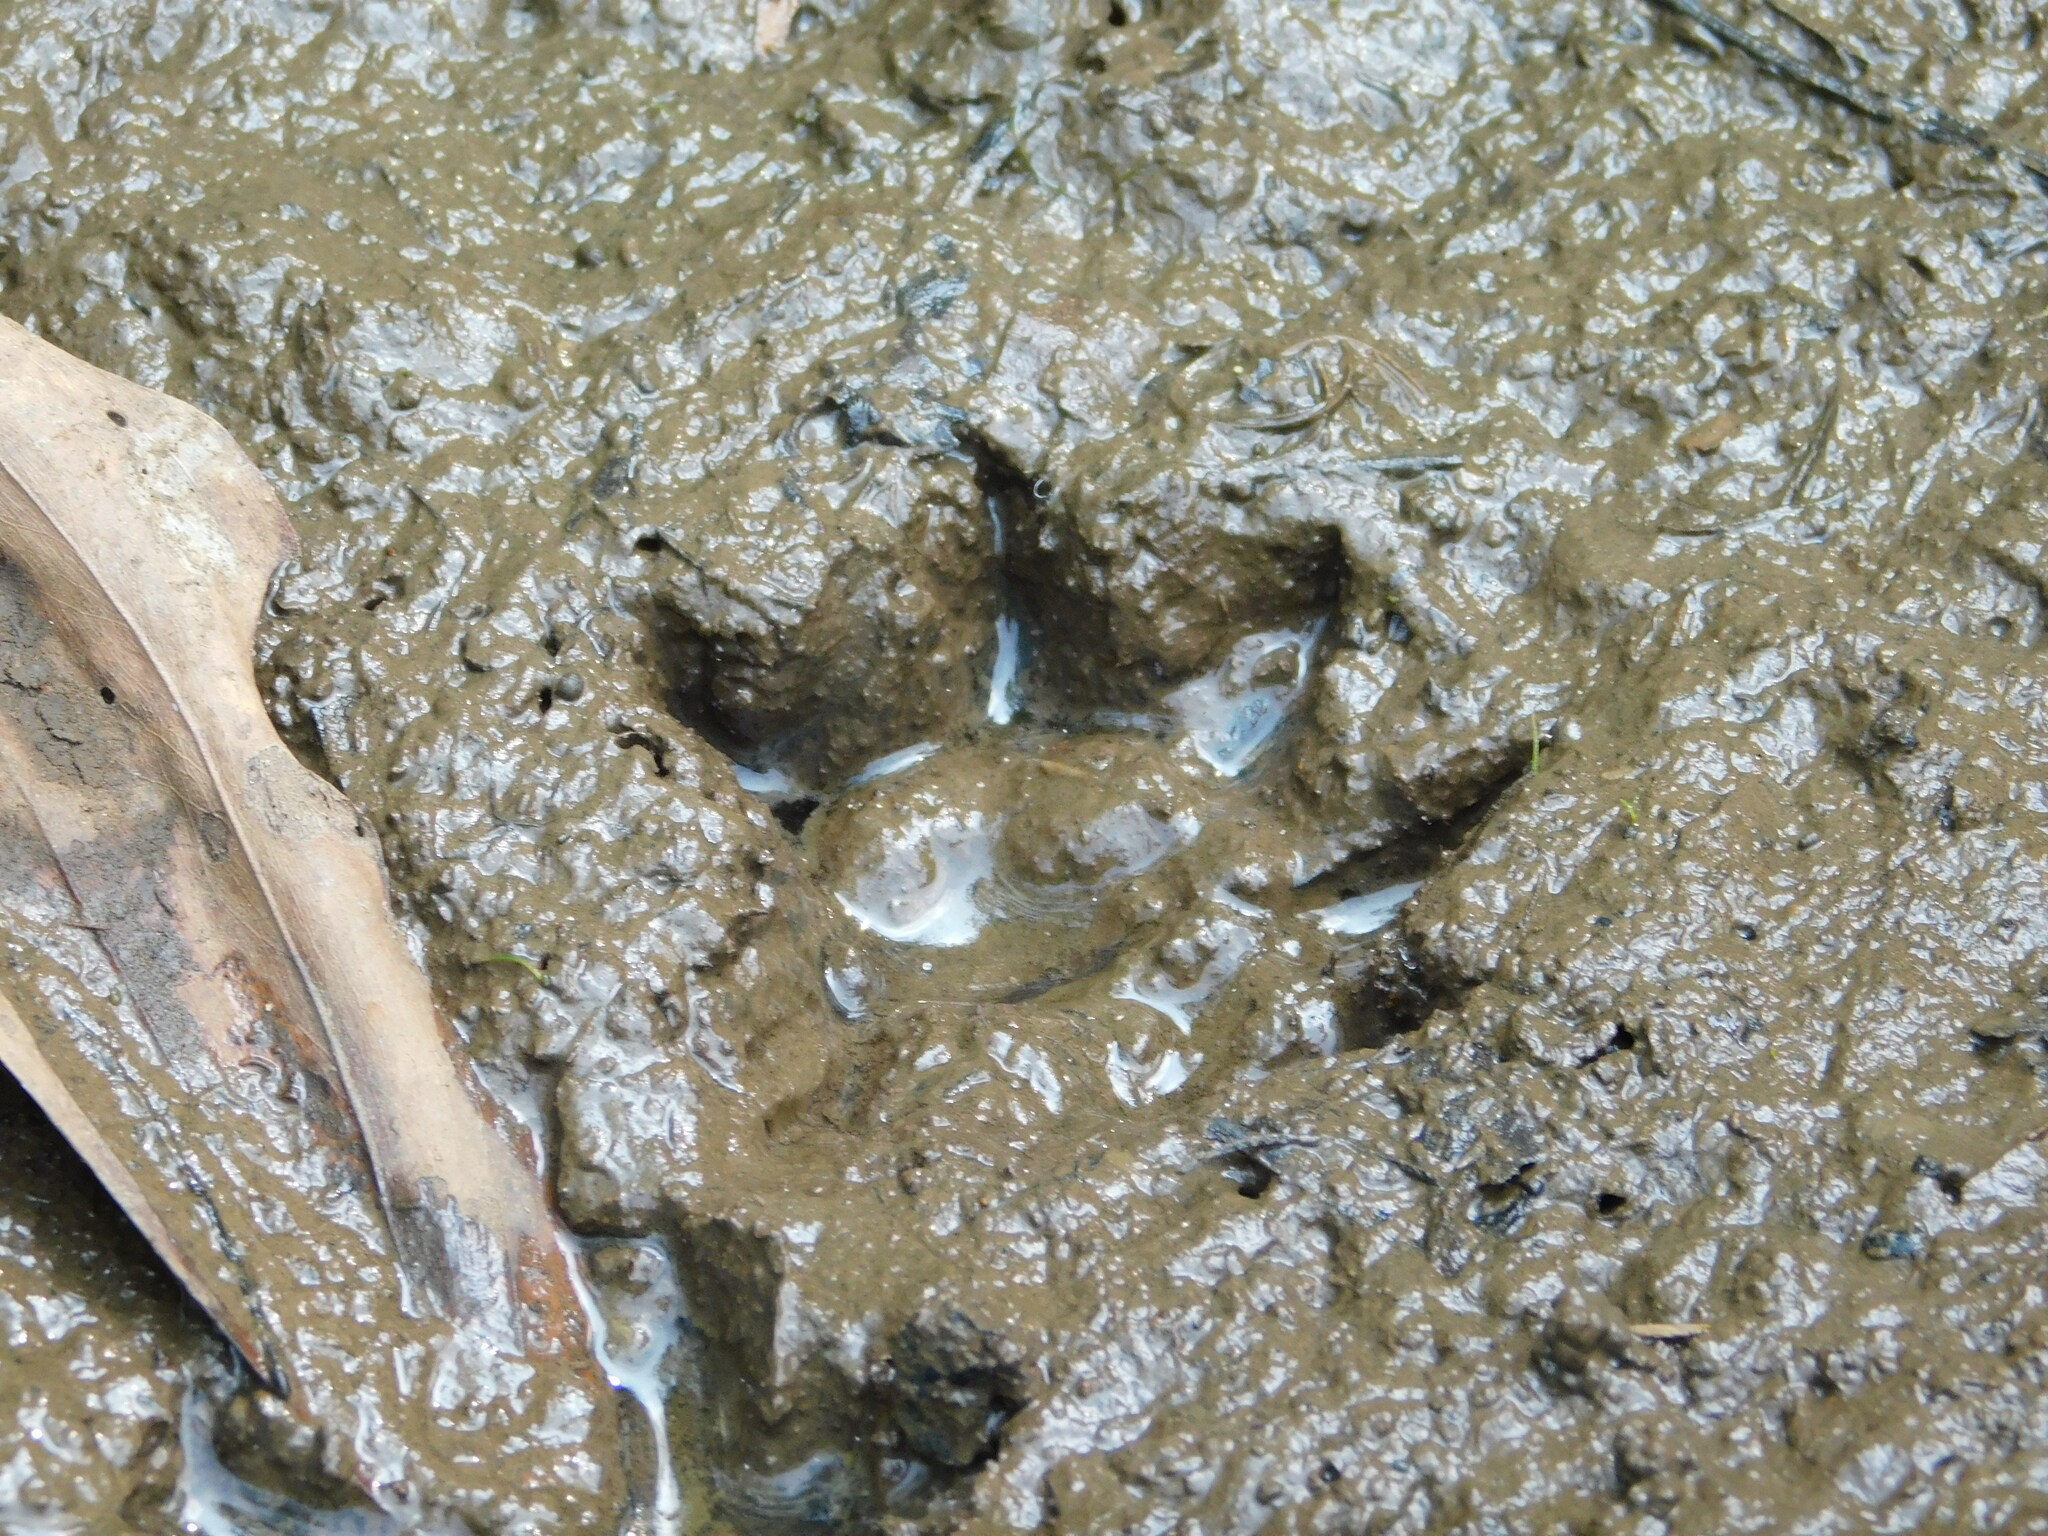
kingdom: Animalia
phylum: Chordata
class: Mammalia
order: Carnivora
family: Viverridae
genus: Paradoxurus
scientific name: Paradoxurus hermaphroditus
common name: Common palm civet
